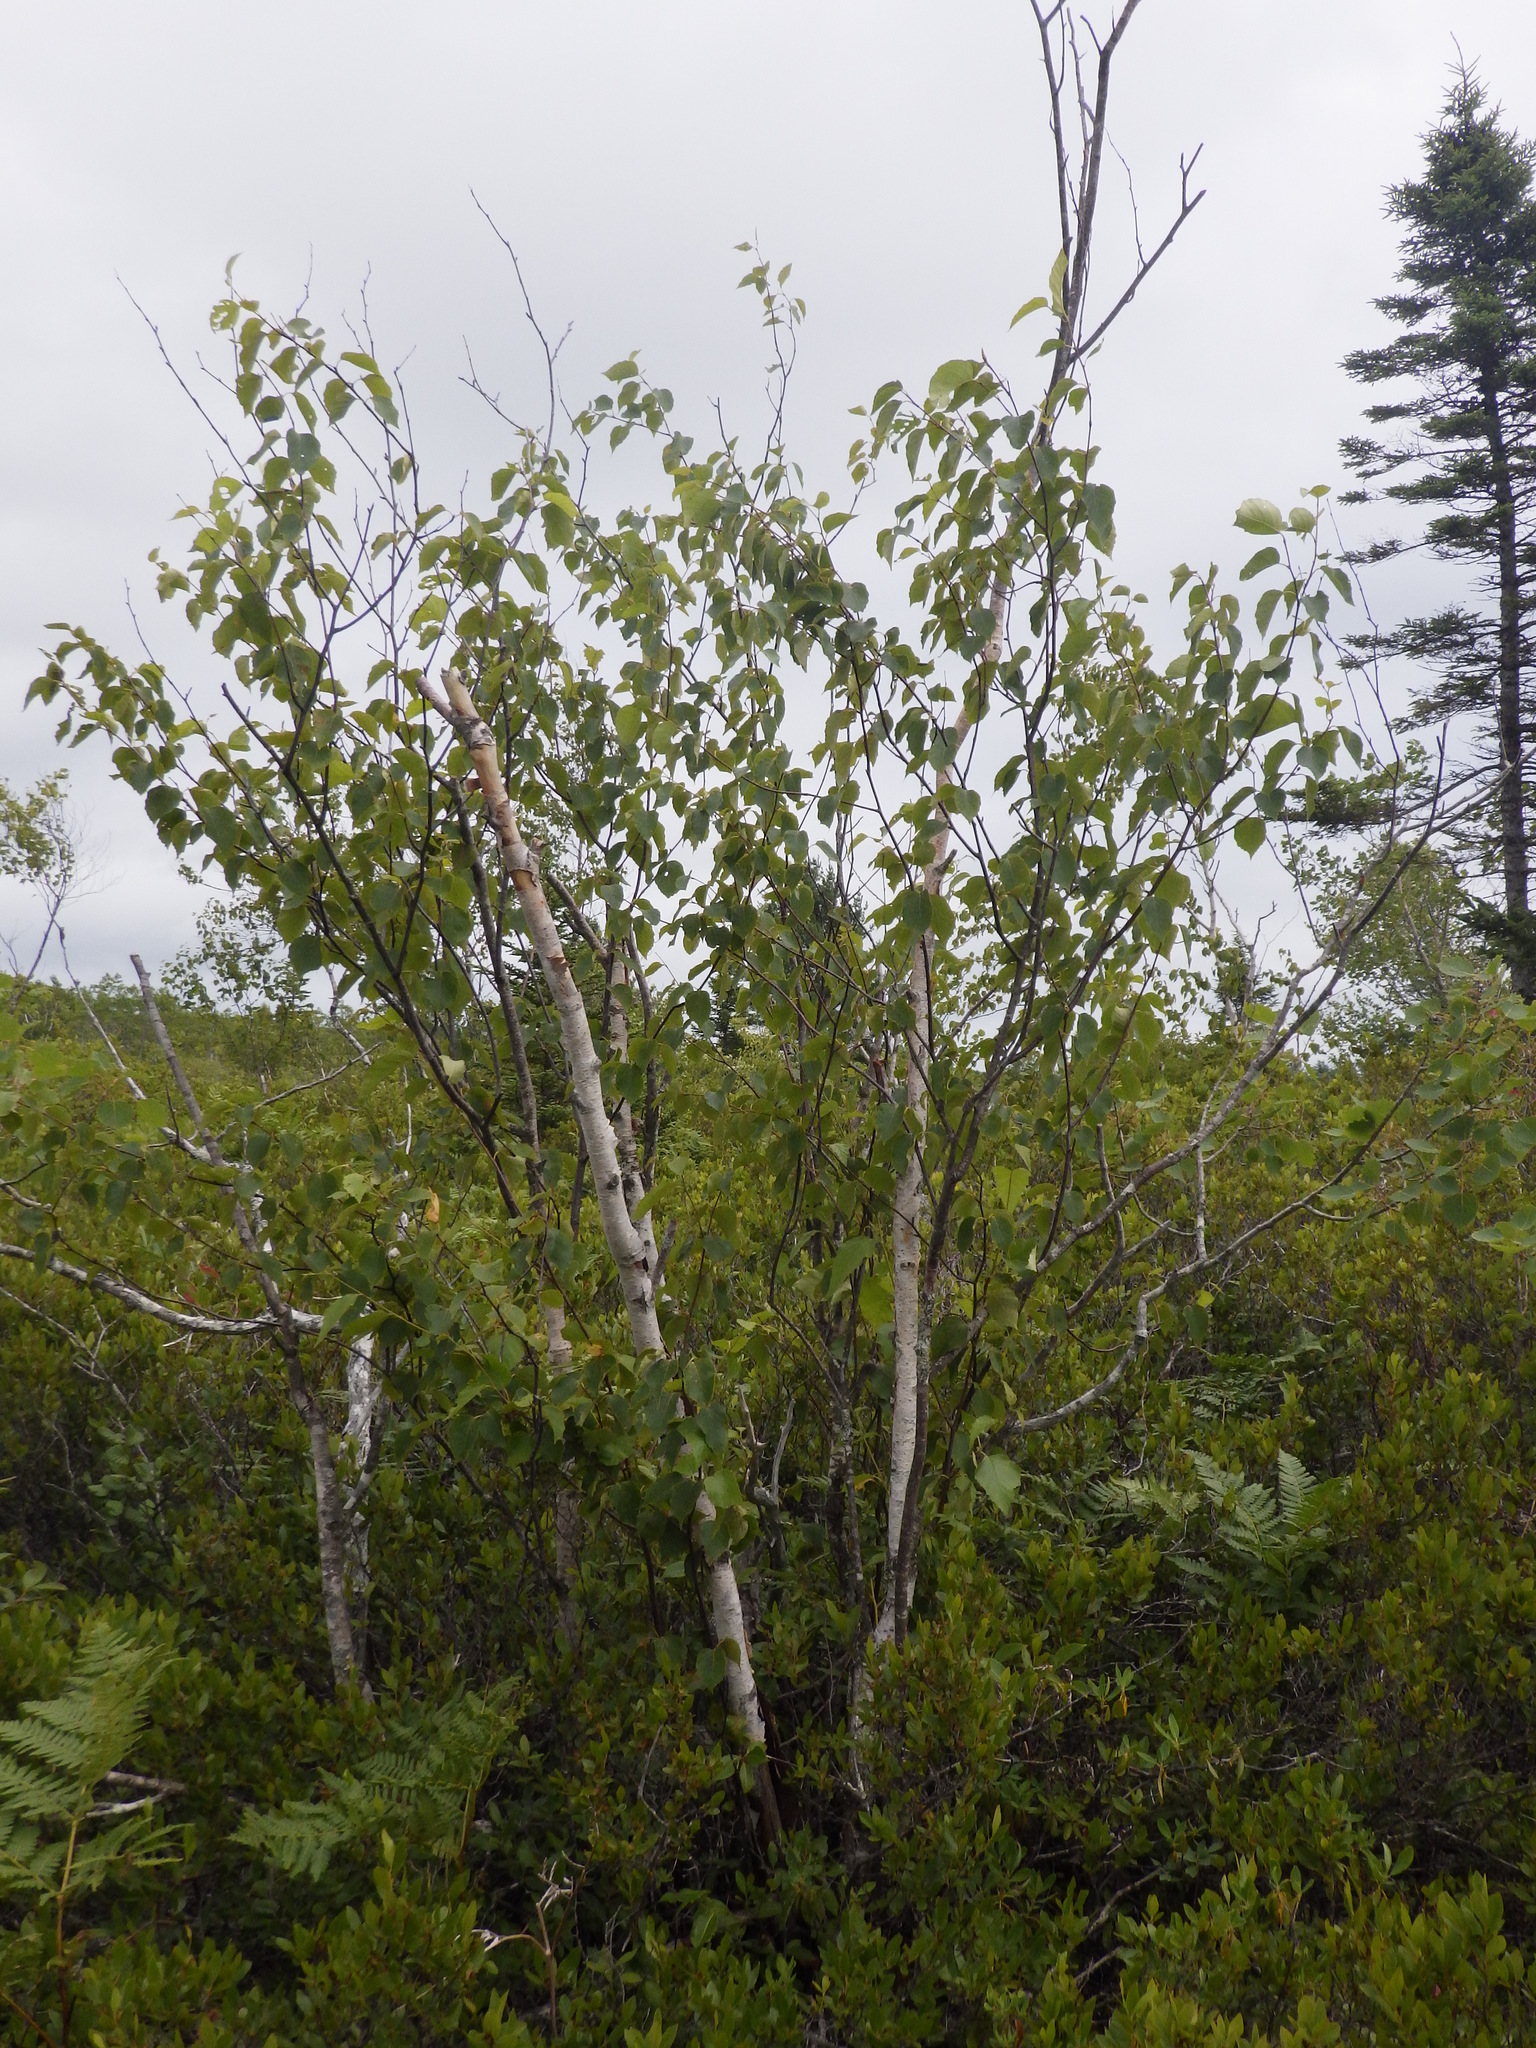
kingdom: Plantae
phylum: Tracheophyta
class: Magnoliopsida
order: Fagales
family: Betulaceae
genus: Betula
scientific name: Betula papyrifera
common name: Paper birch
